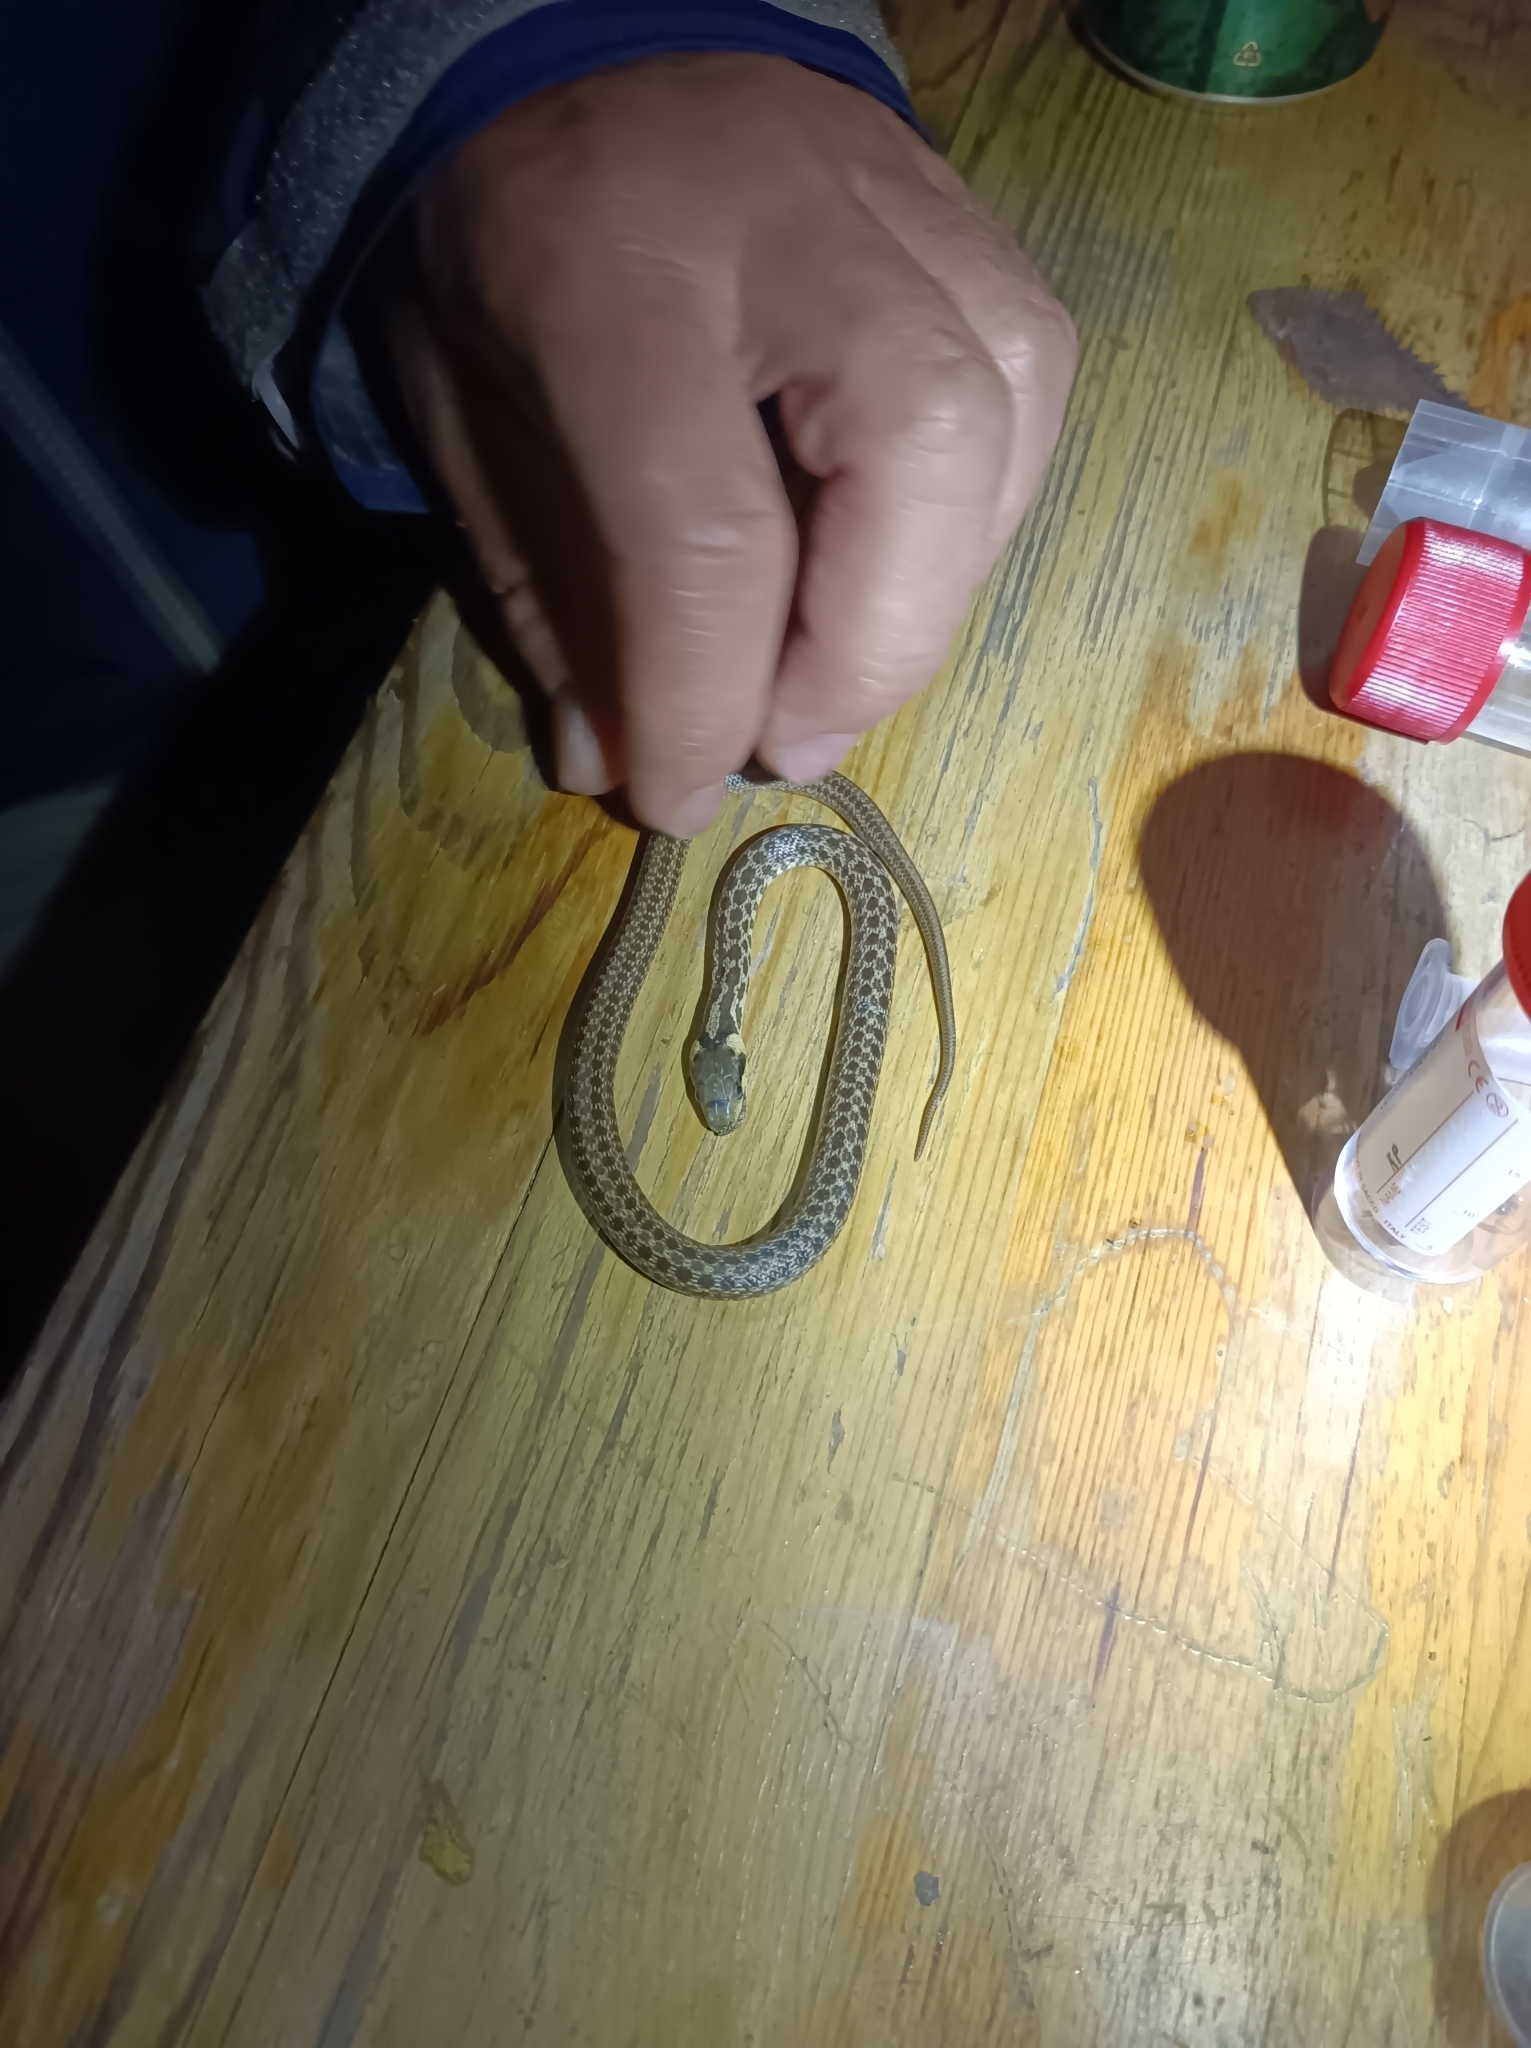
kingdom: Animalia
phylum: Chordata
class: Squamata
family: Colubridae
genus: Zamenis
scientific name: Zamenis longissimus
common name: Aesculapean snake
